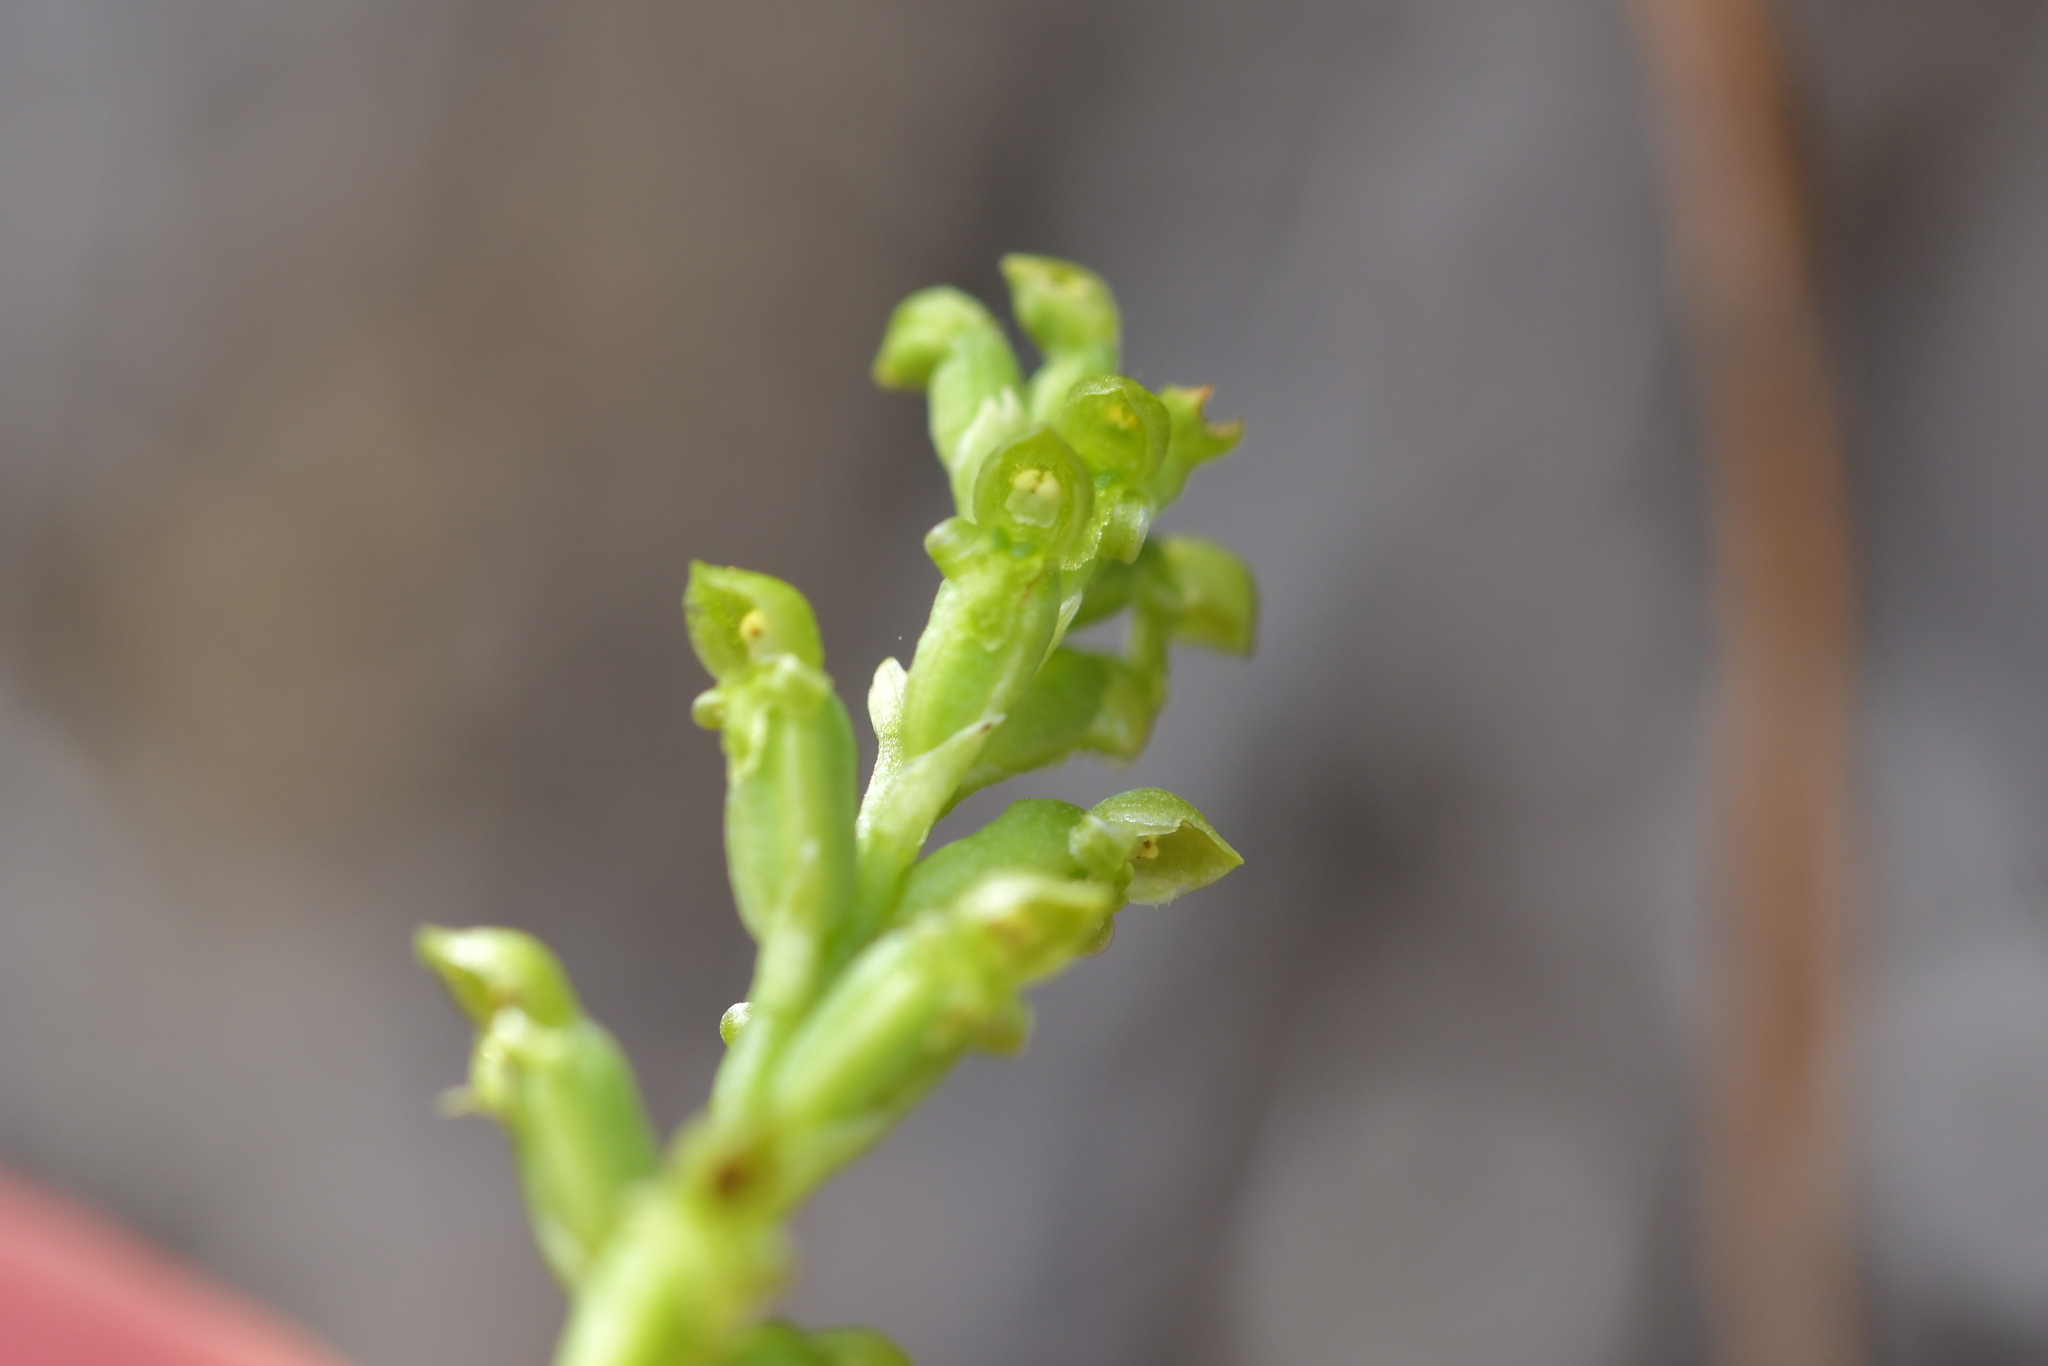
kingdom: Plantae
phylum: Tracheophyta
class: Liliopsida
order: Asparagales
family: Orchidaceae
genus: Microtis
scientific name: Microtis unifolia
